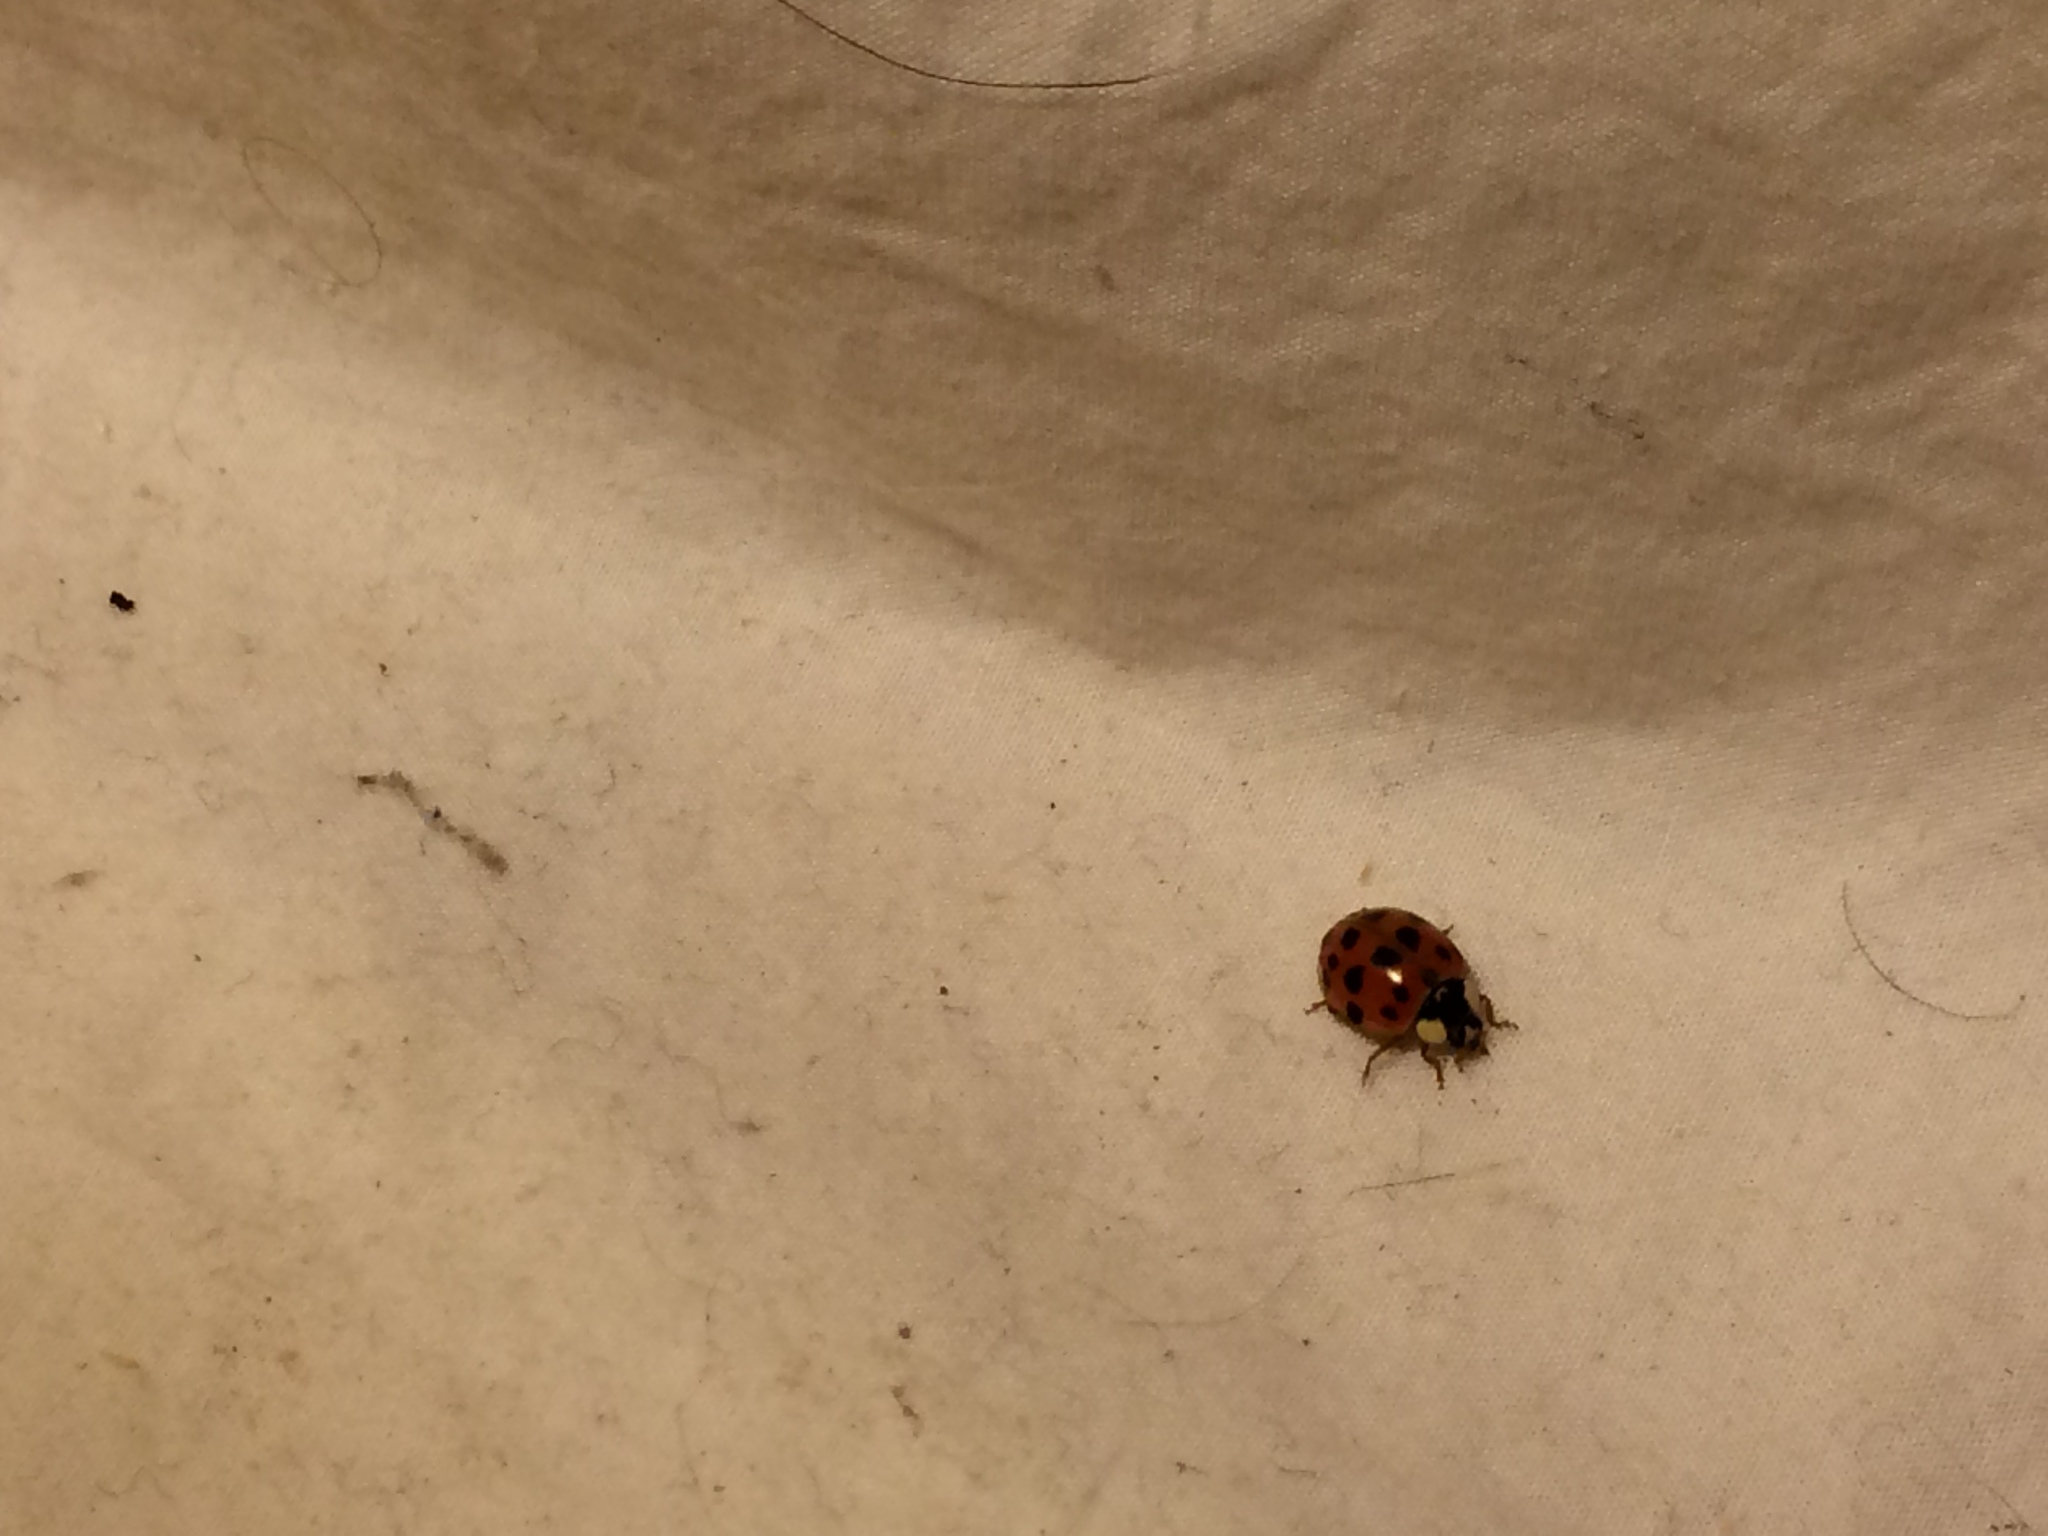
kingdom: Animalia
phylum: Arthropoda
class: Insecta
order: Coleoptera
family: Coccinellidae
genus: Harmonia
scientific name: Harmonia axyridis
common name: Harlequin ladybird
